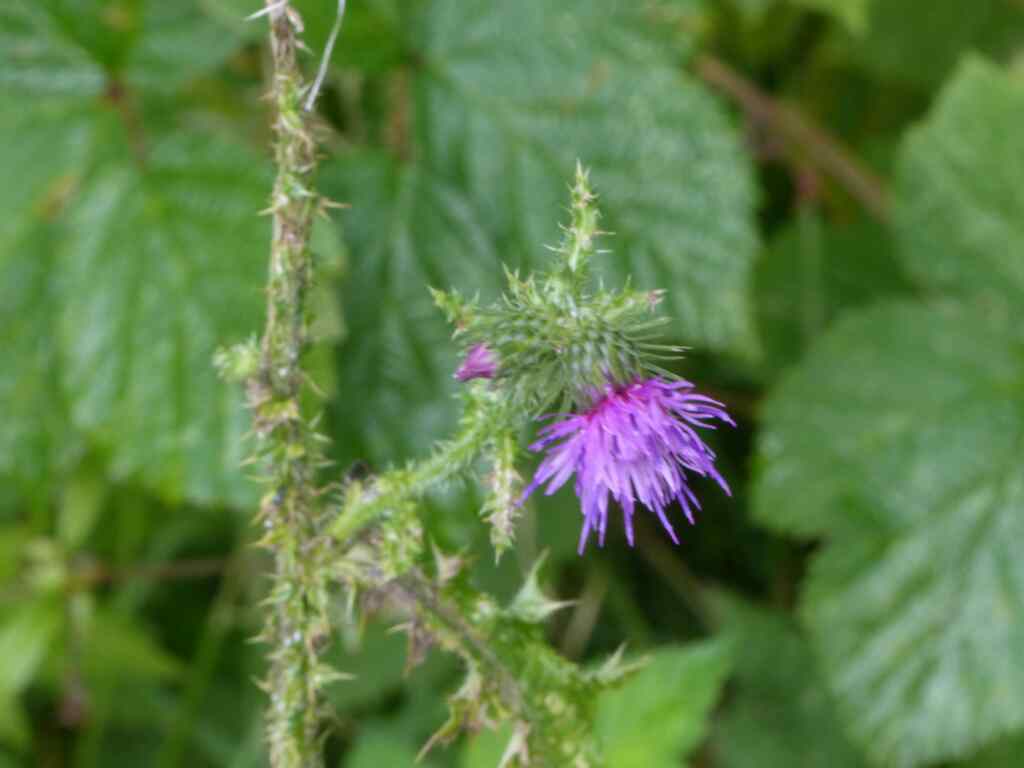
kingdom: Plantae
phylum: Tracheophyta
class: Magnoliopsida
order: Asterales
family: Asteraceae
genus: Carduus
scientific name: Carduus crispus
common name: Welted thistle
